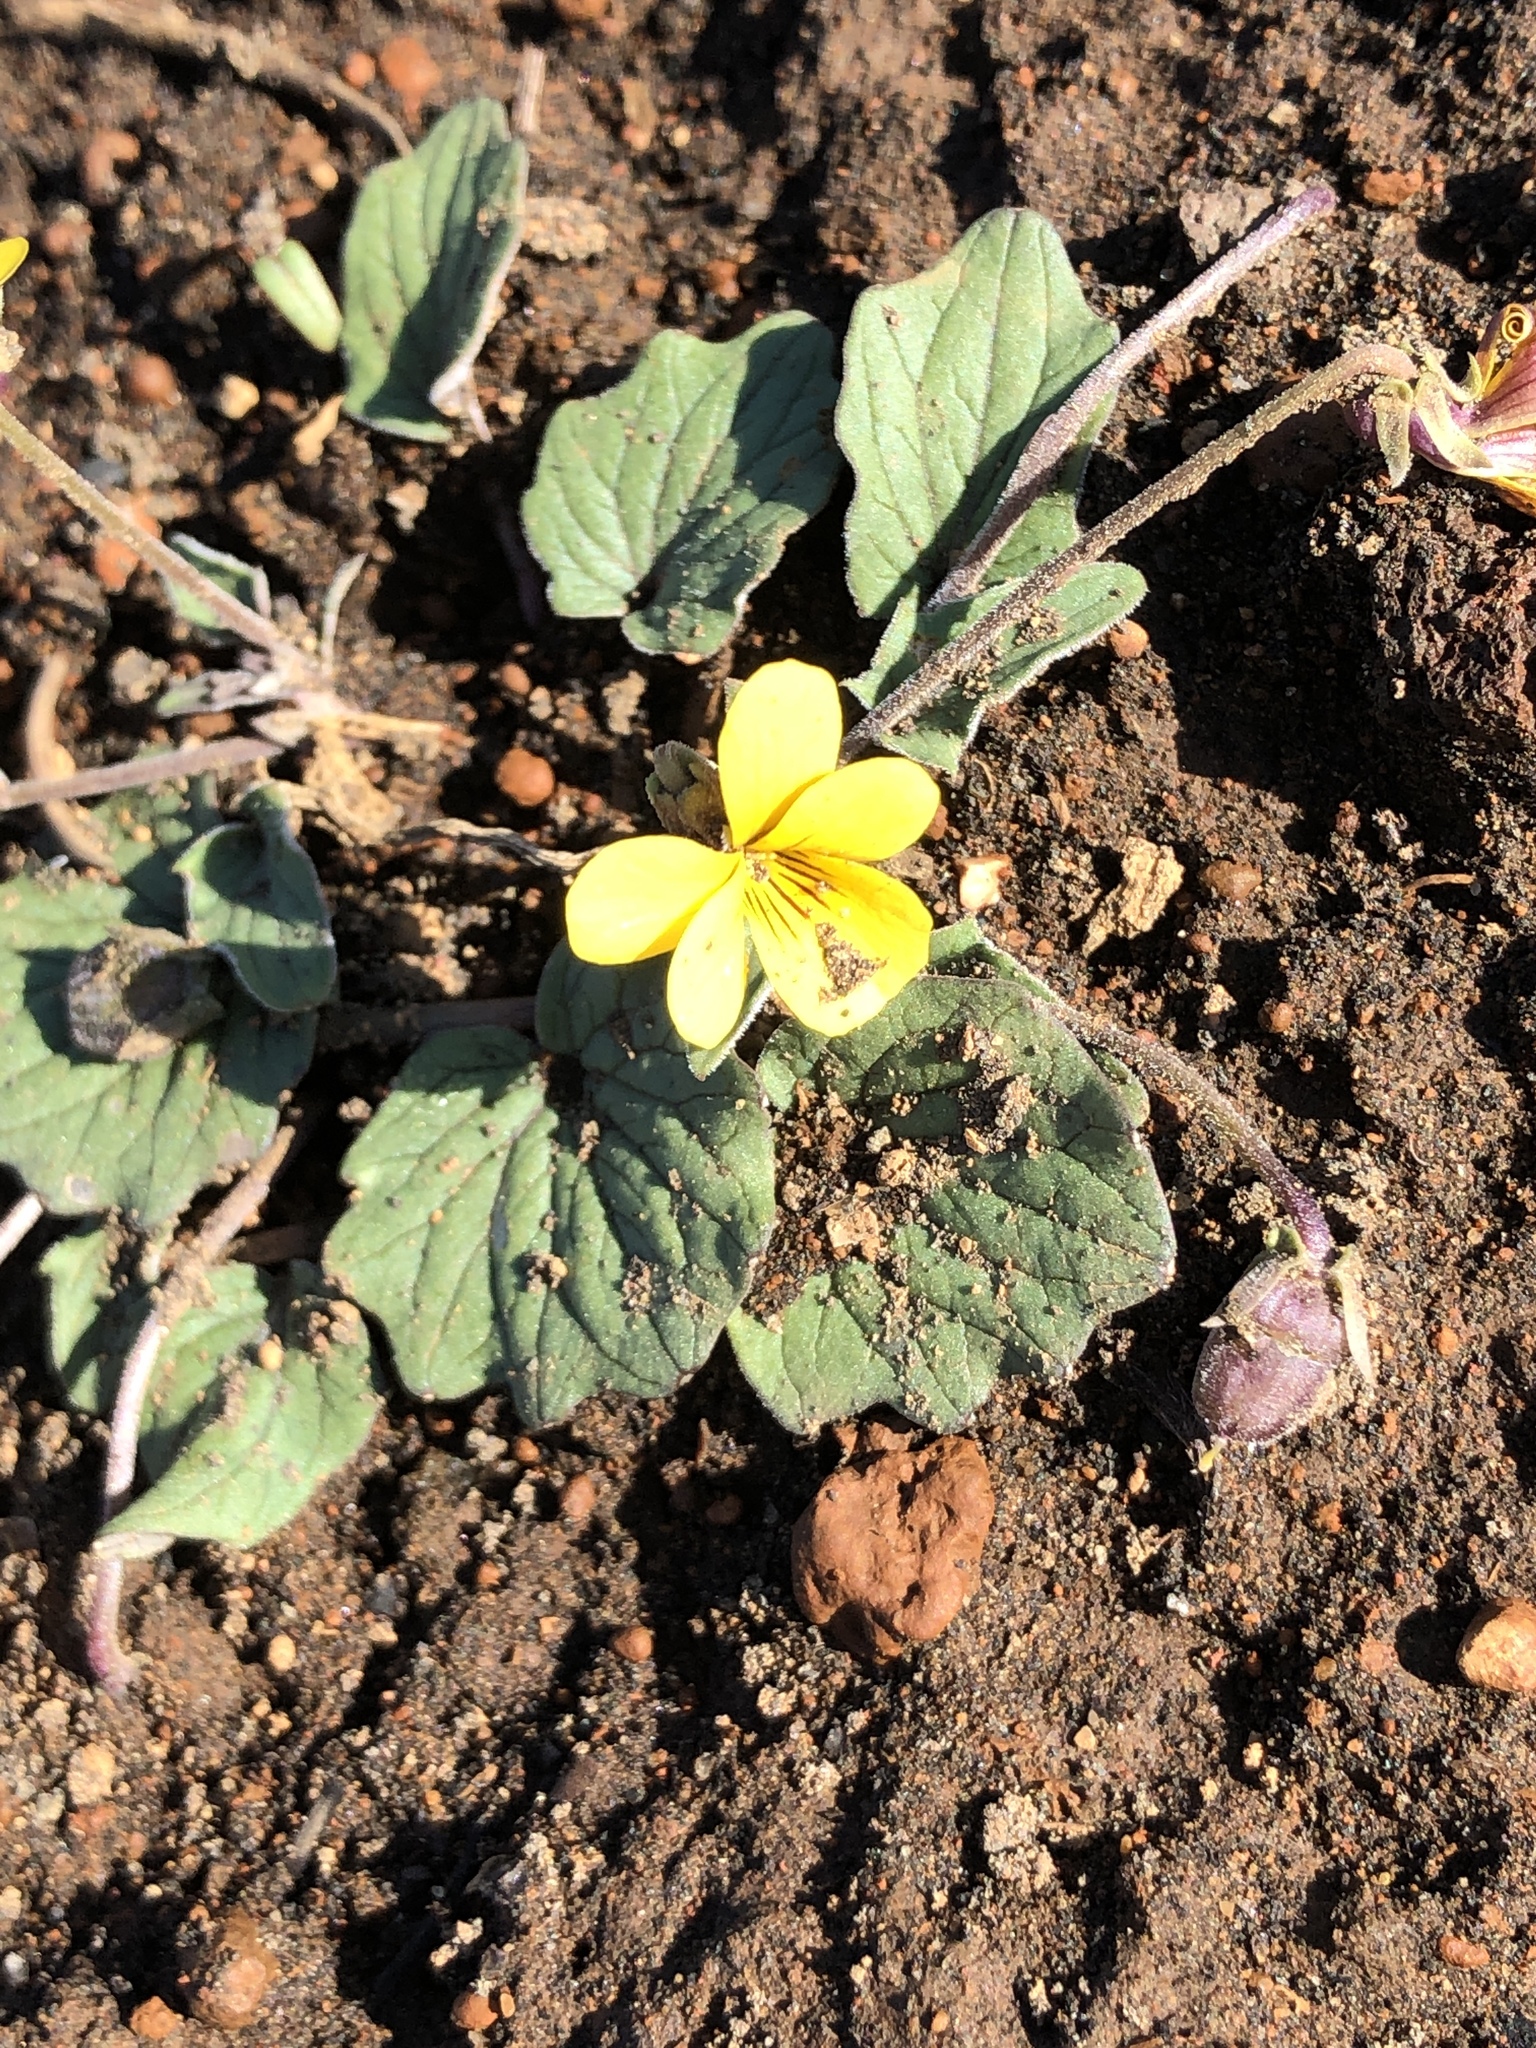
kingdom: Plantae
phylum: Tracheophyta
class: Magnoliopsida
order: Malpighiales
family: Violaceae
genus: Viola
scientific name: Viola purpurea
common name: Pine violet
